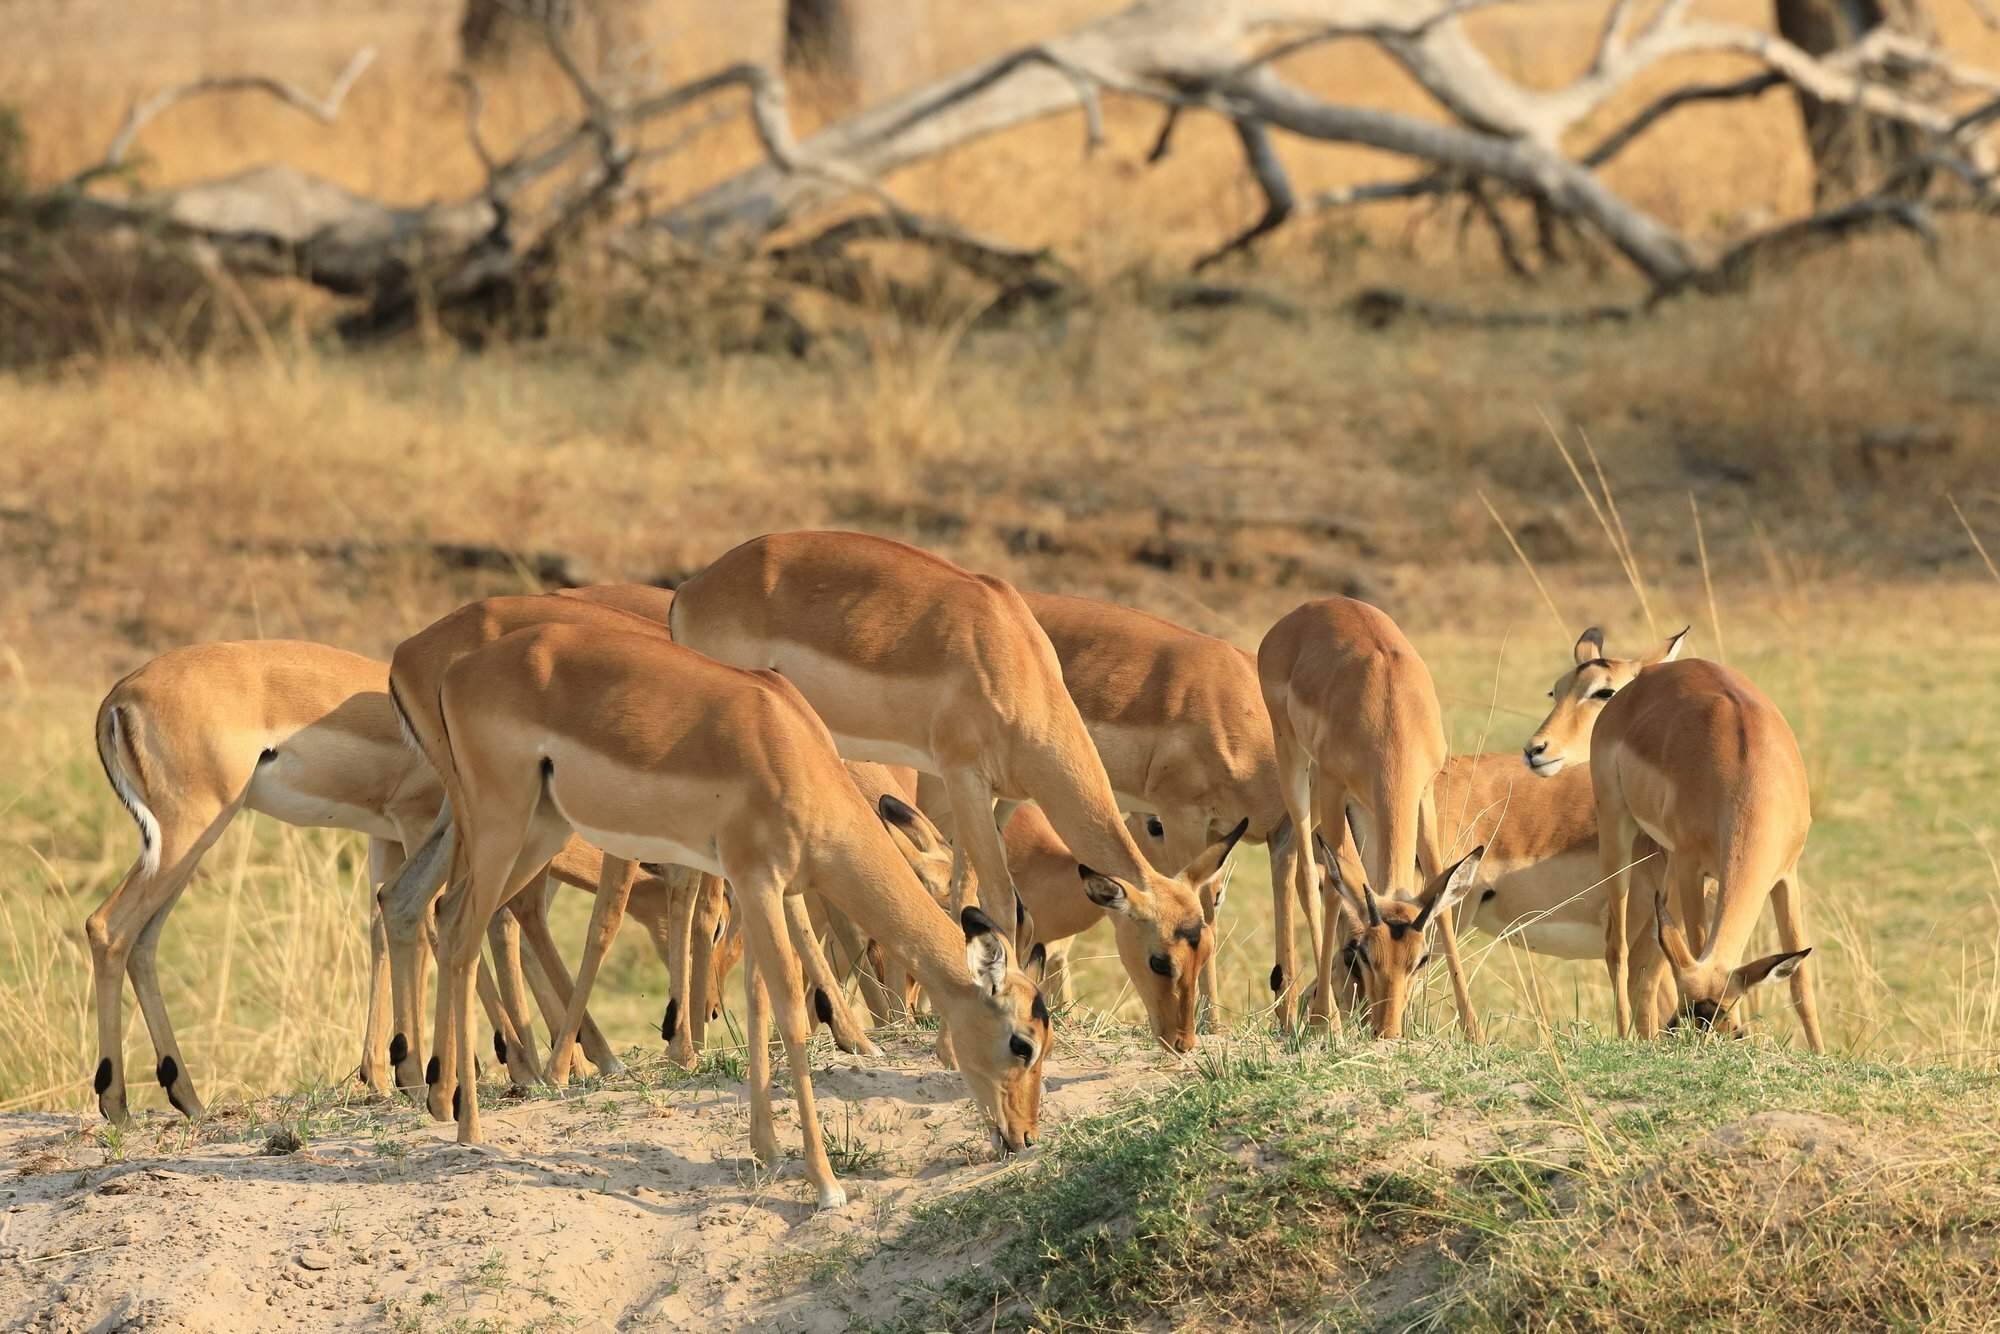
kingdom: Animalia
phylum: Chordata
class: Mammalia
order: Artiodactyla
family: Bovidae
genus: Aepyceros
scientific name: Aepyceros melampus
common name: Impala
